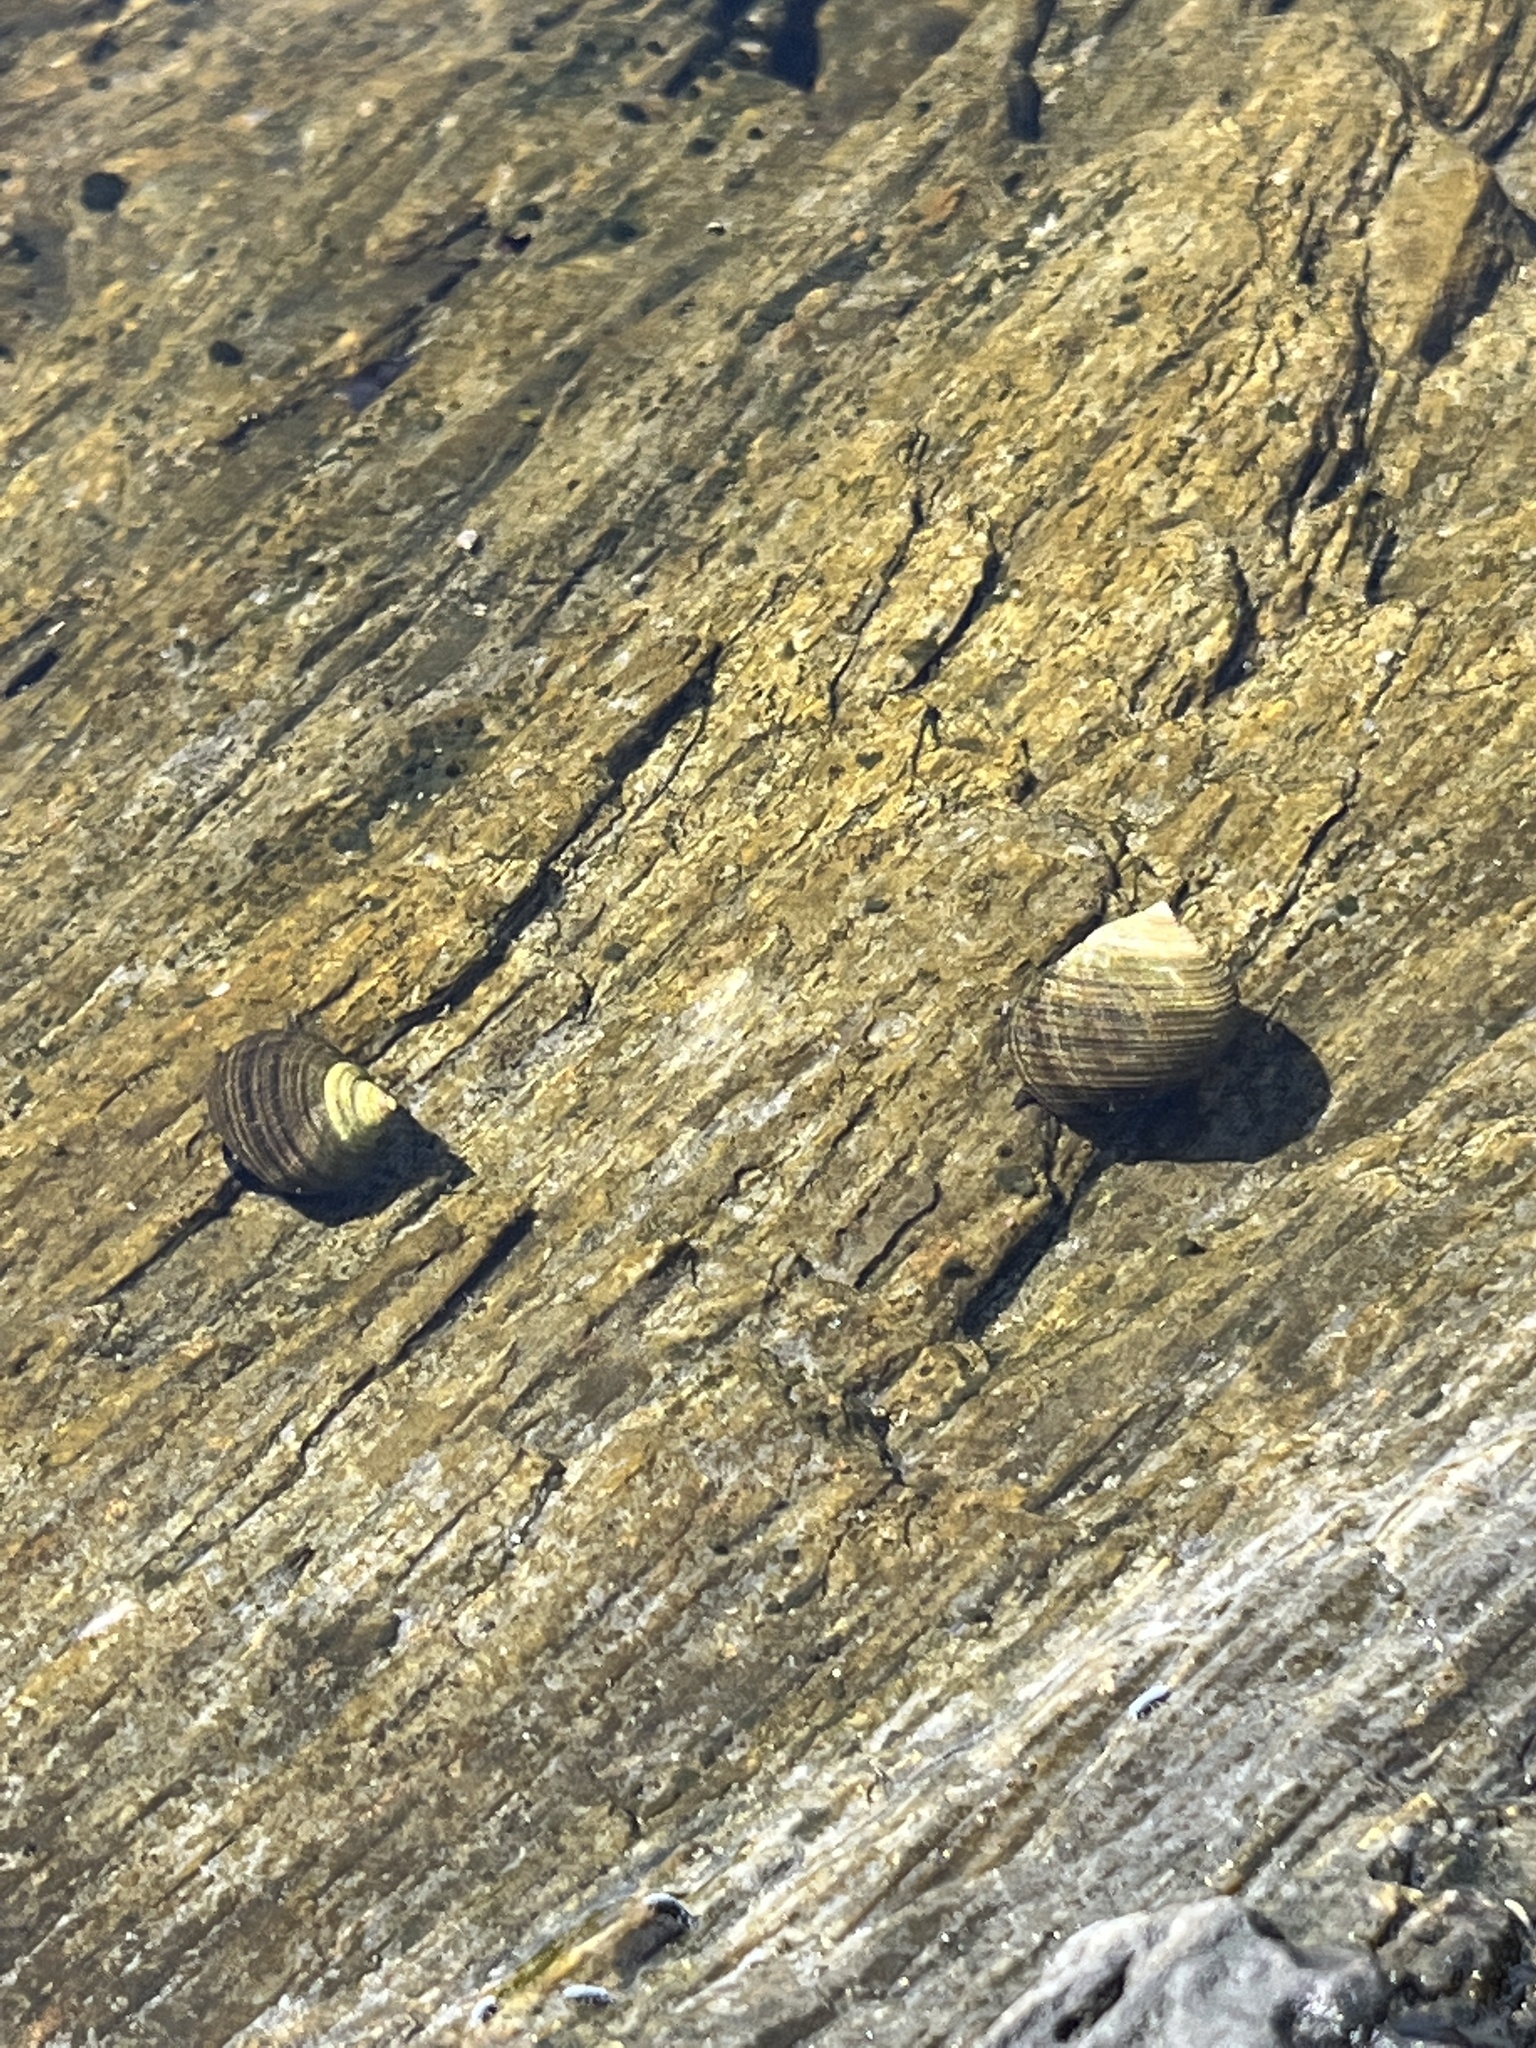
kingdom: Animalia
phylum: Mollusca
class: Gastropoda
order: Littorinimorpha
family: Littorinidae
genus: Littorina
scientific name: Littorina littorea
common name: Common periwinkle
